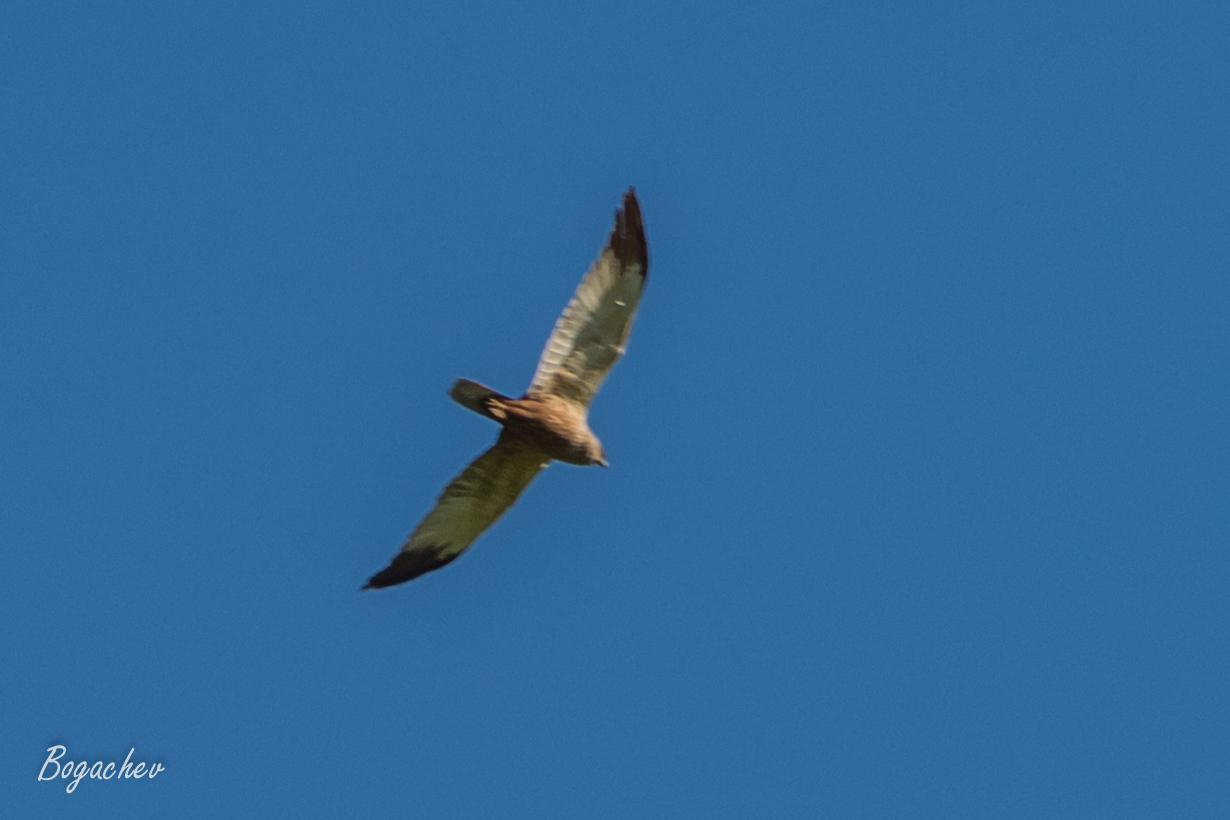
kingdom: Animalia
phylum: Chordata
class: Aves
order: Accipitriformes
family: Accipitridae
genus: Circus
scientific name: Circus aeruginosus
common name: Western marsh harrier
